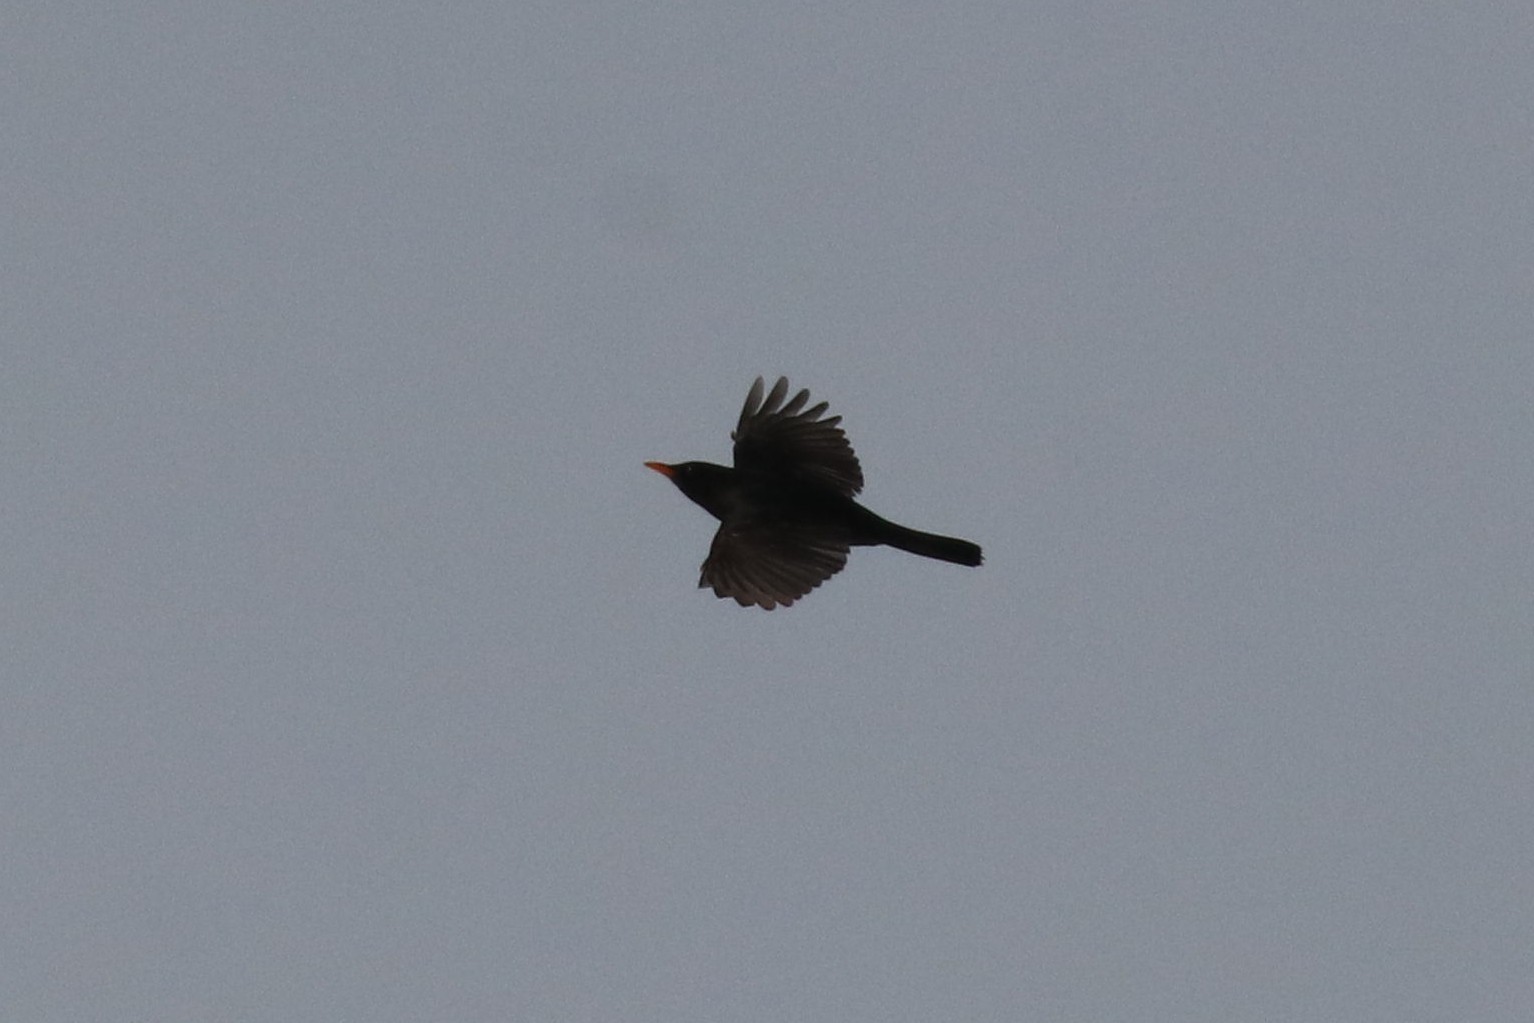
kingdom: Animalia
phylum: Chordata
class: Aves
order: Passeriformes
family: Turdidae
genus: Turdus
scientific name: Turdus merula
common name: Common blackbird
